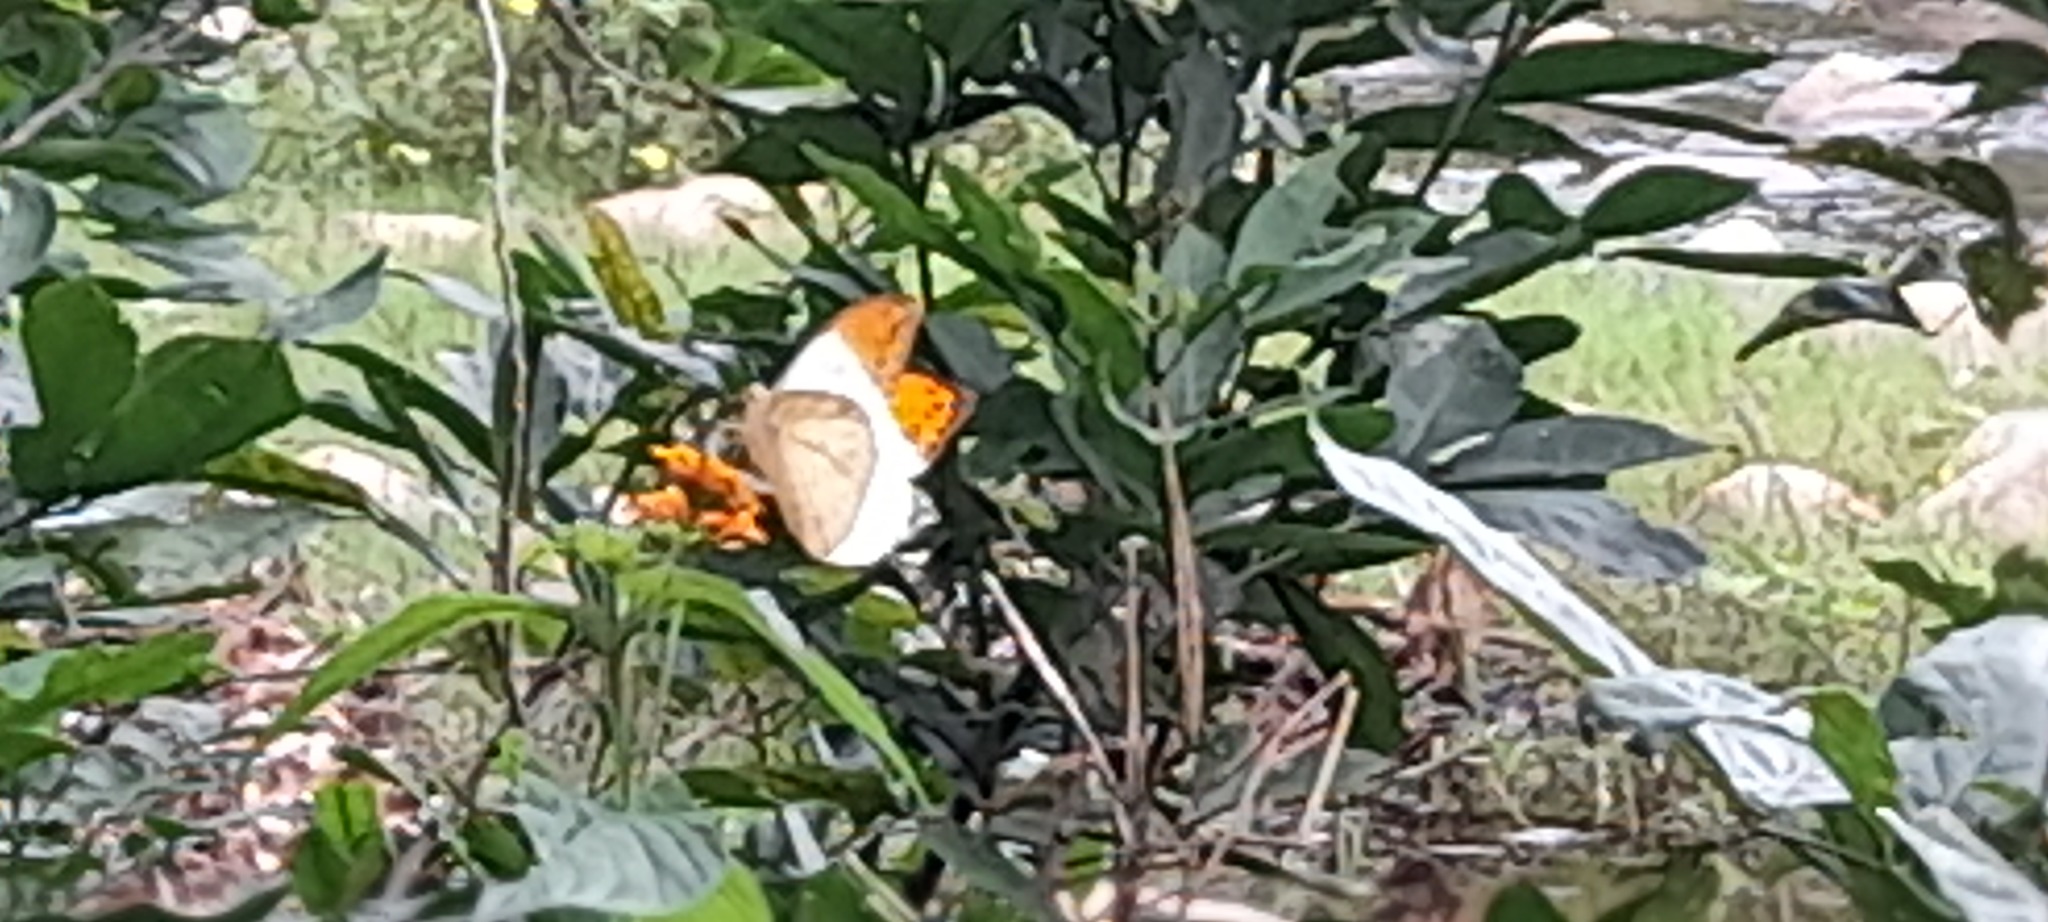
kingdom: Animalia
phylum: Arthropoda
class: Insecta
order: Lepidoptera
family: Pieridae
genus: Hebomoia
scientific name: Hebomoia glaucippe
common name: Great orange tip
